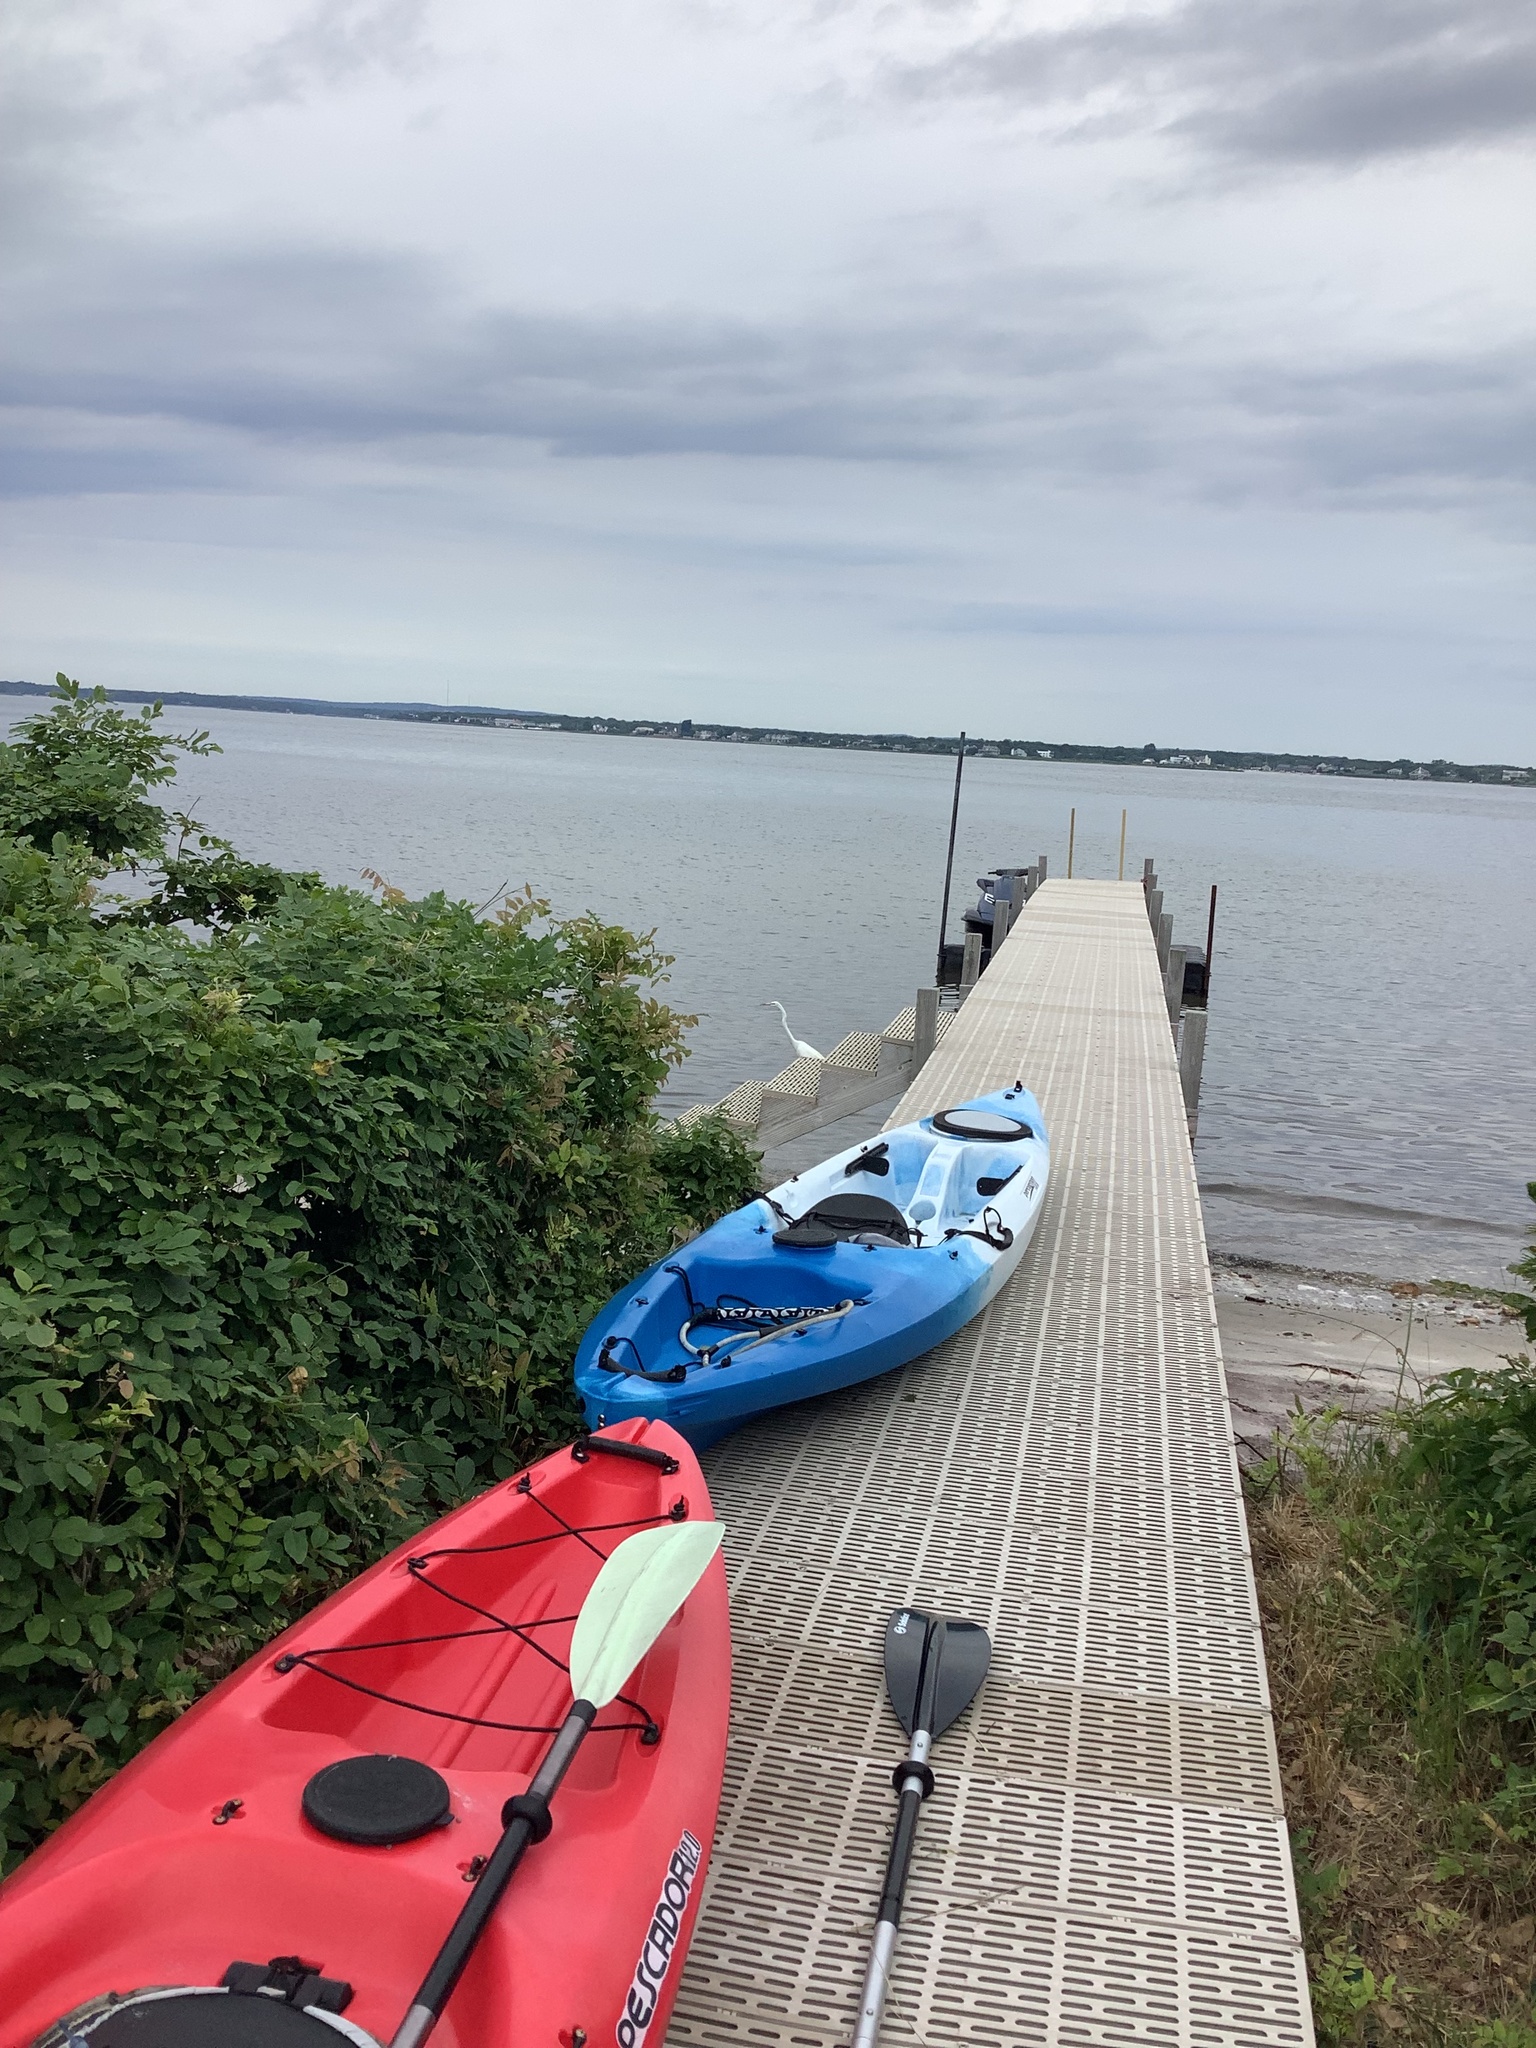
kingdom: Animalia
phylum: Chordata
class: Aves
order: Pelecaniformes
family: Ardeidae
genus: Ardea
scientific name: Ardea alba
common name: Great egret
